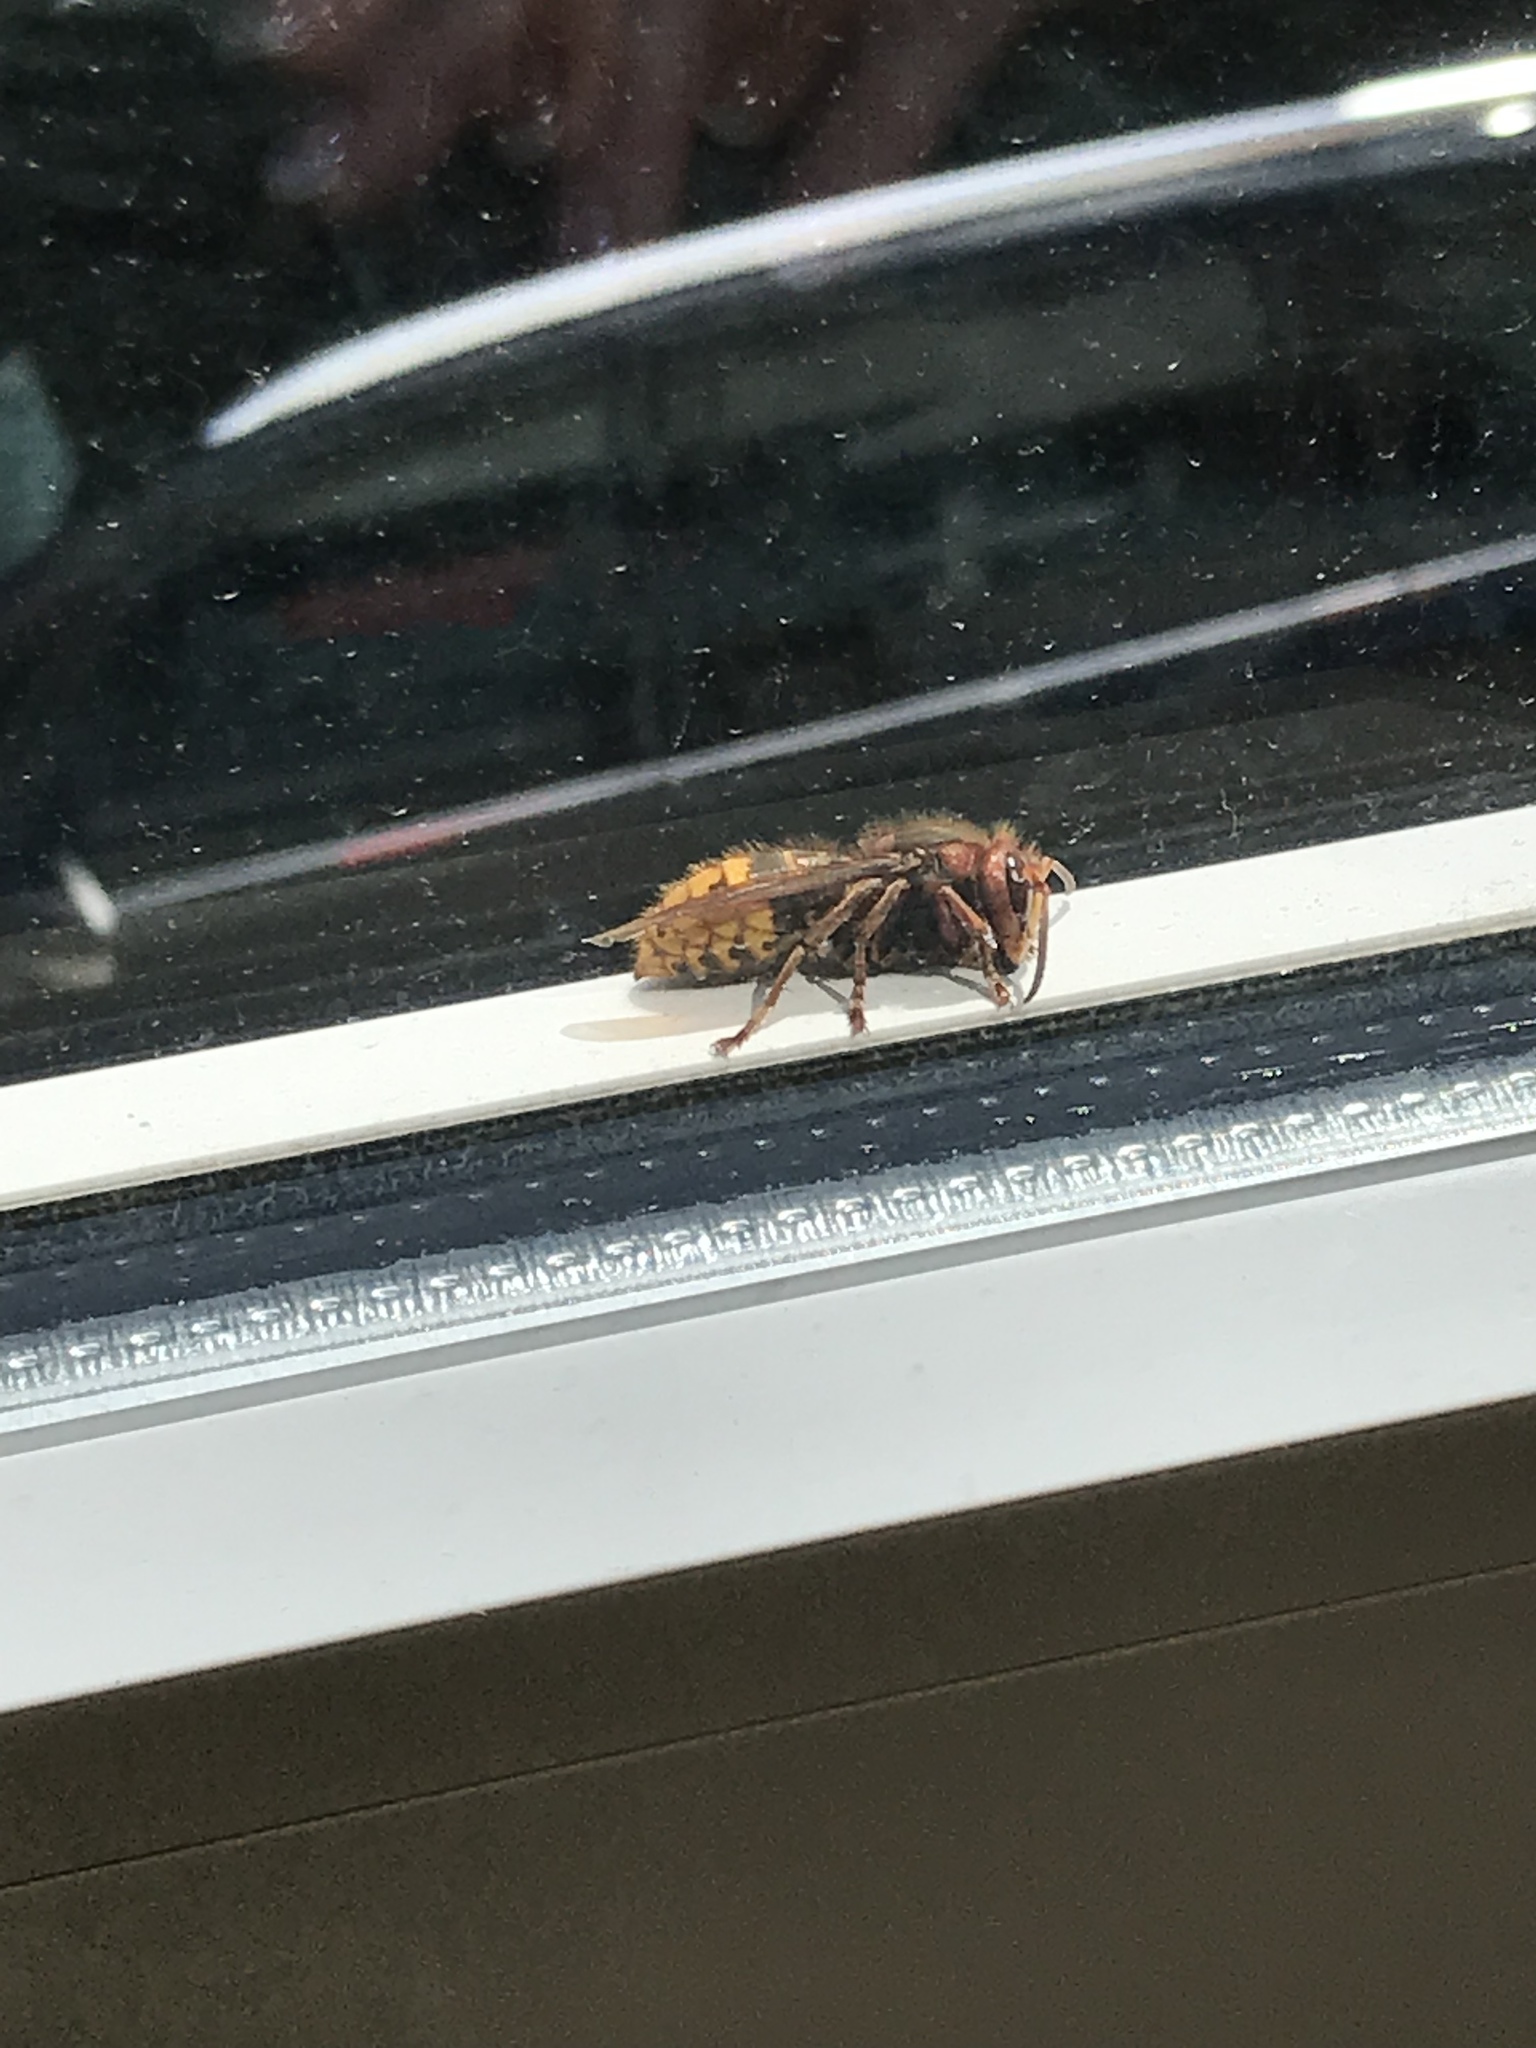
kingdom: Animalia
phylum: Arthropoda
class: Insecta
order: Hymenoptera
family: Vespidae
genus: Vespa
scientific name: Vespa crabro
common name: Hornet
